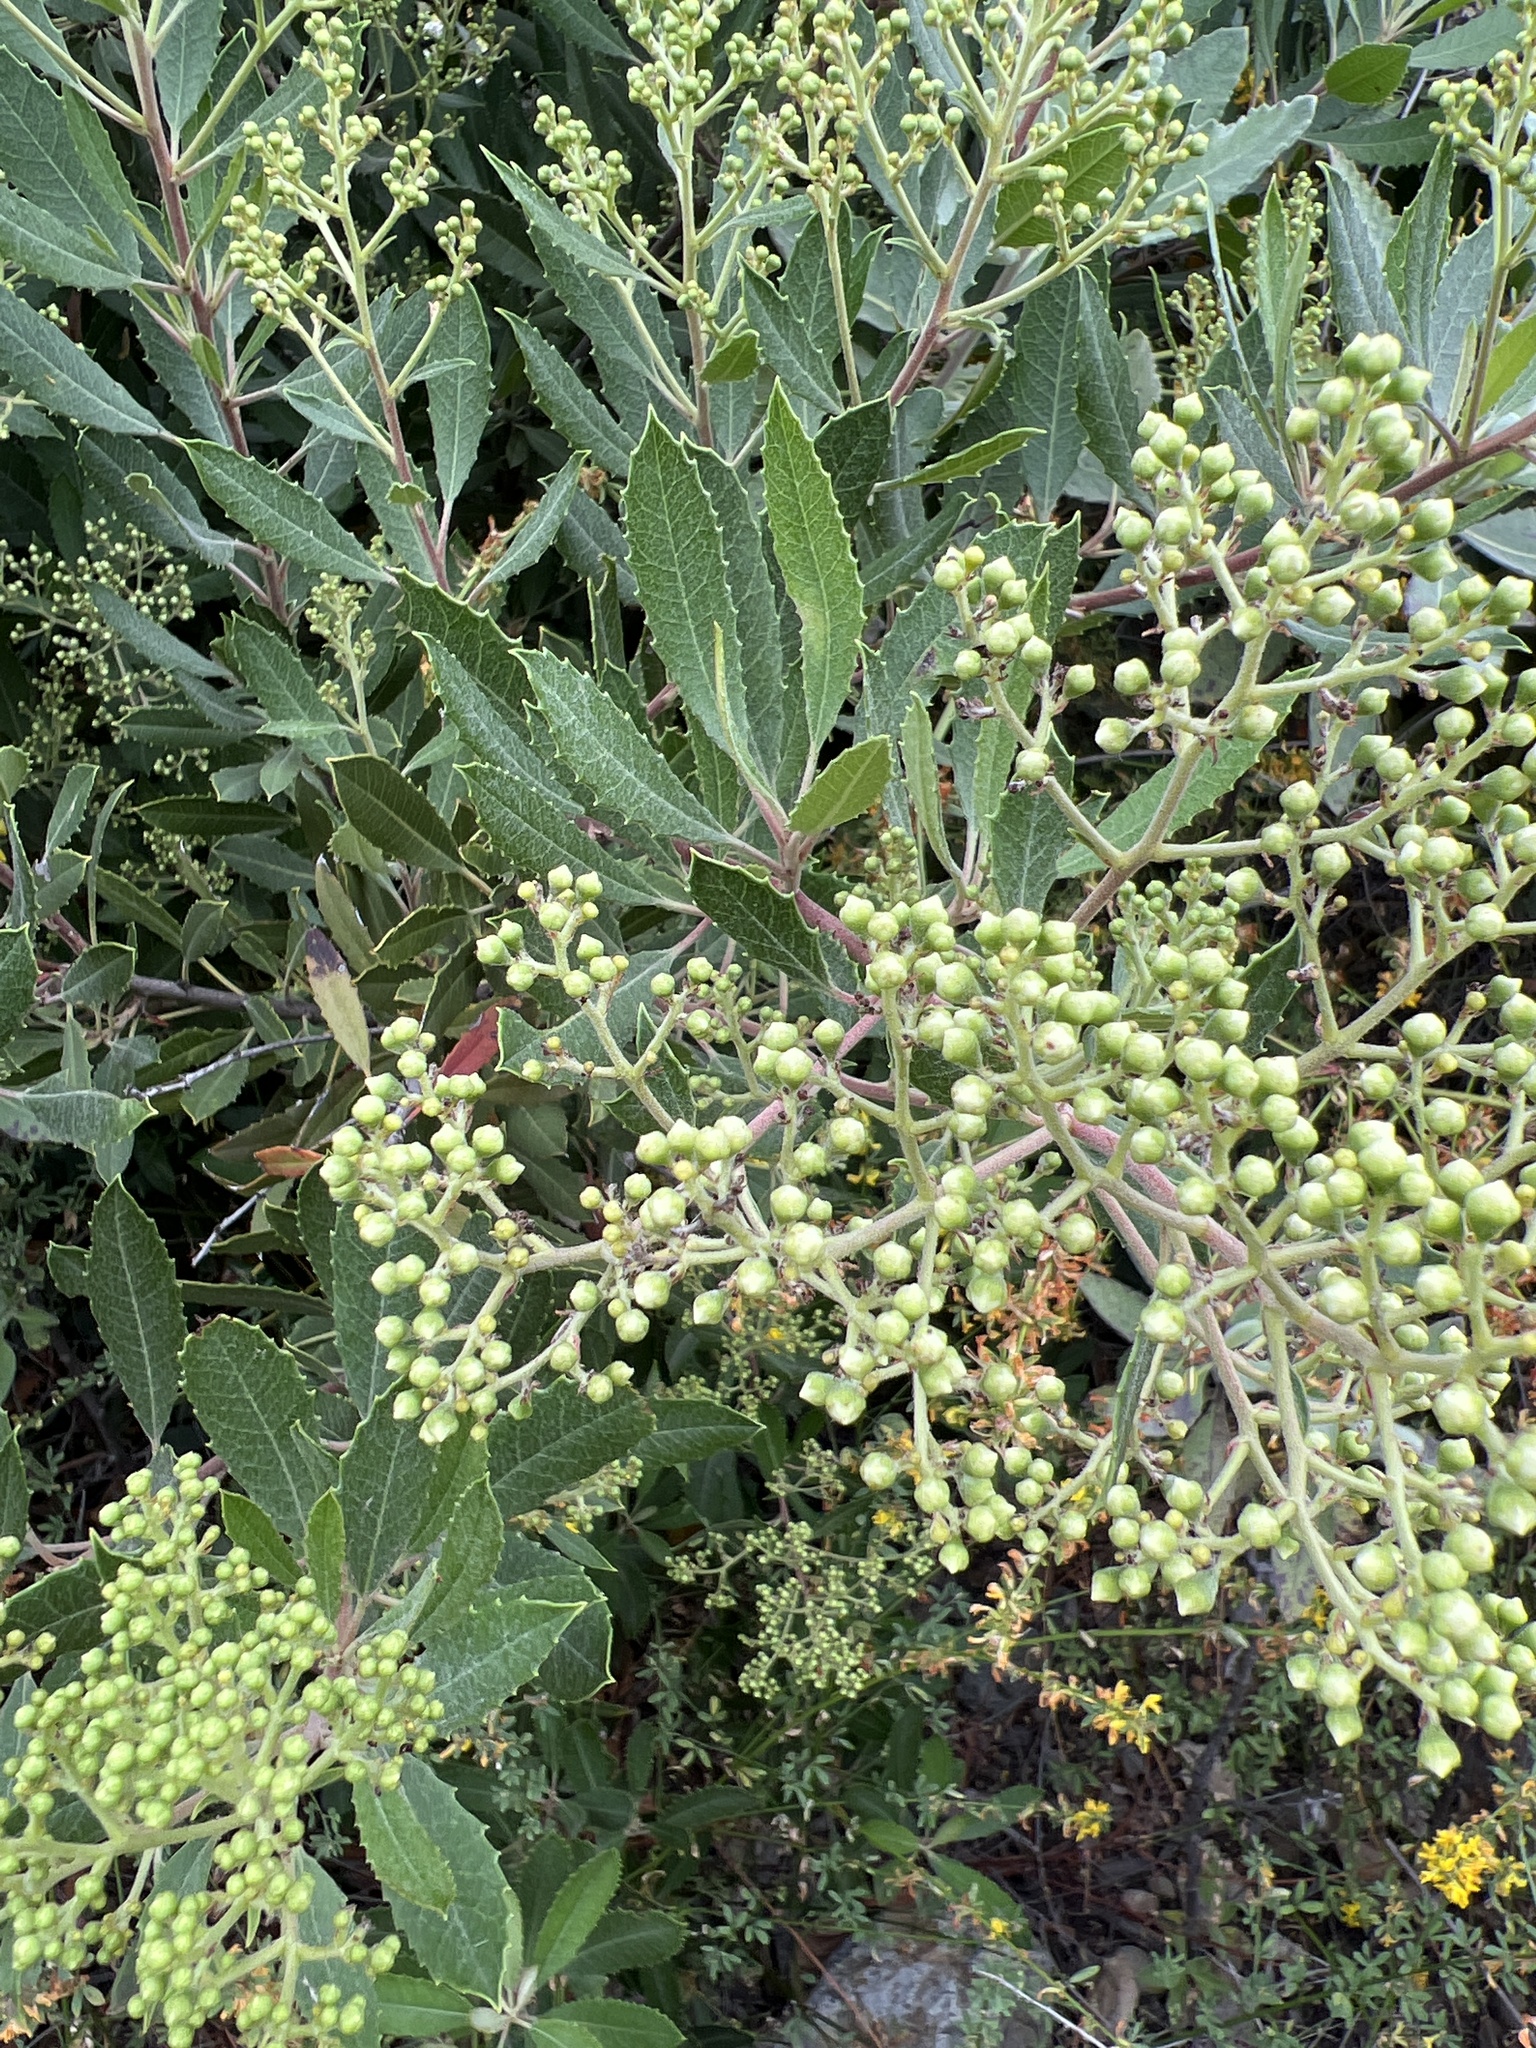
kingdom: Plantae
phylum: Tracheophyta
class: Magnoliopsida
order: Rosales
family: Rosaceae
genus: Heteromeles
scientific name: Heteromeles arbutifolia
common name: California-holly
